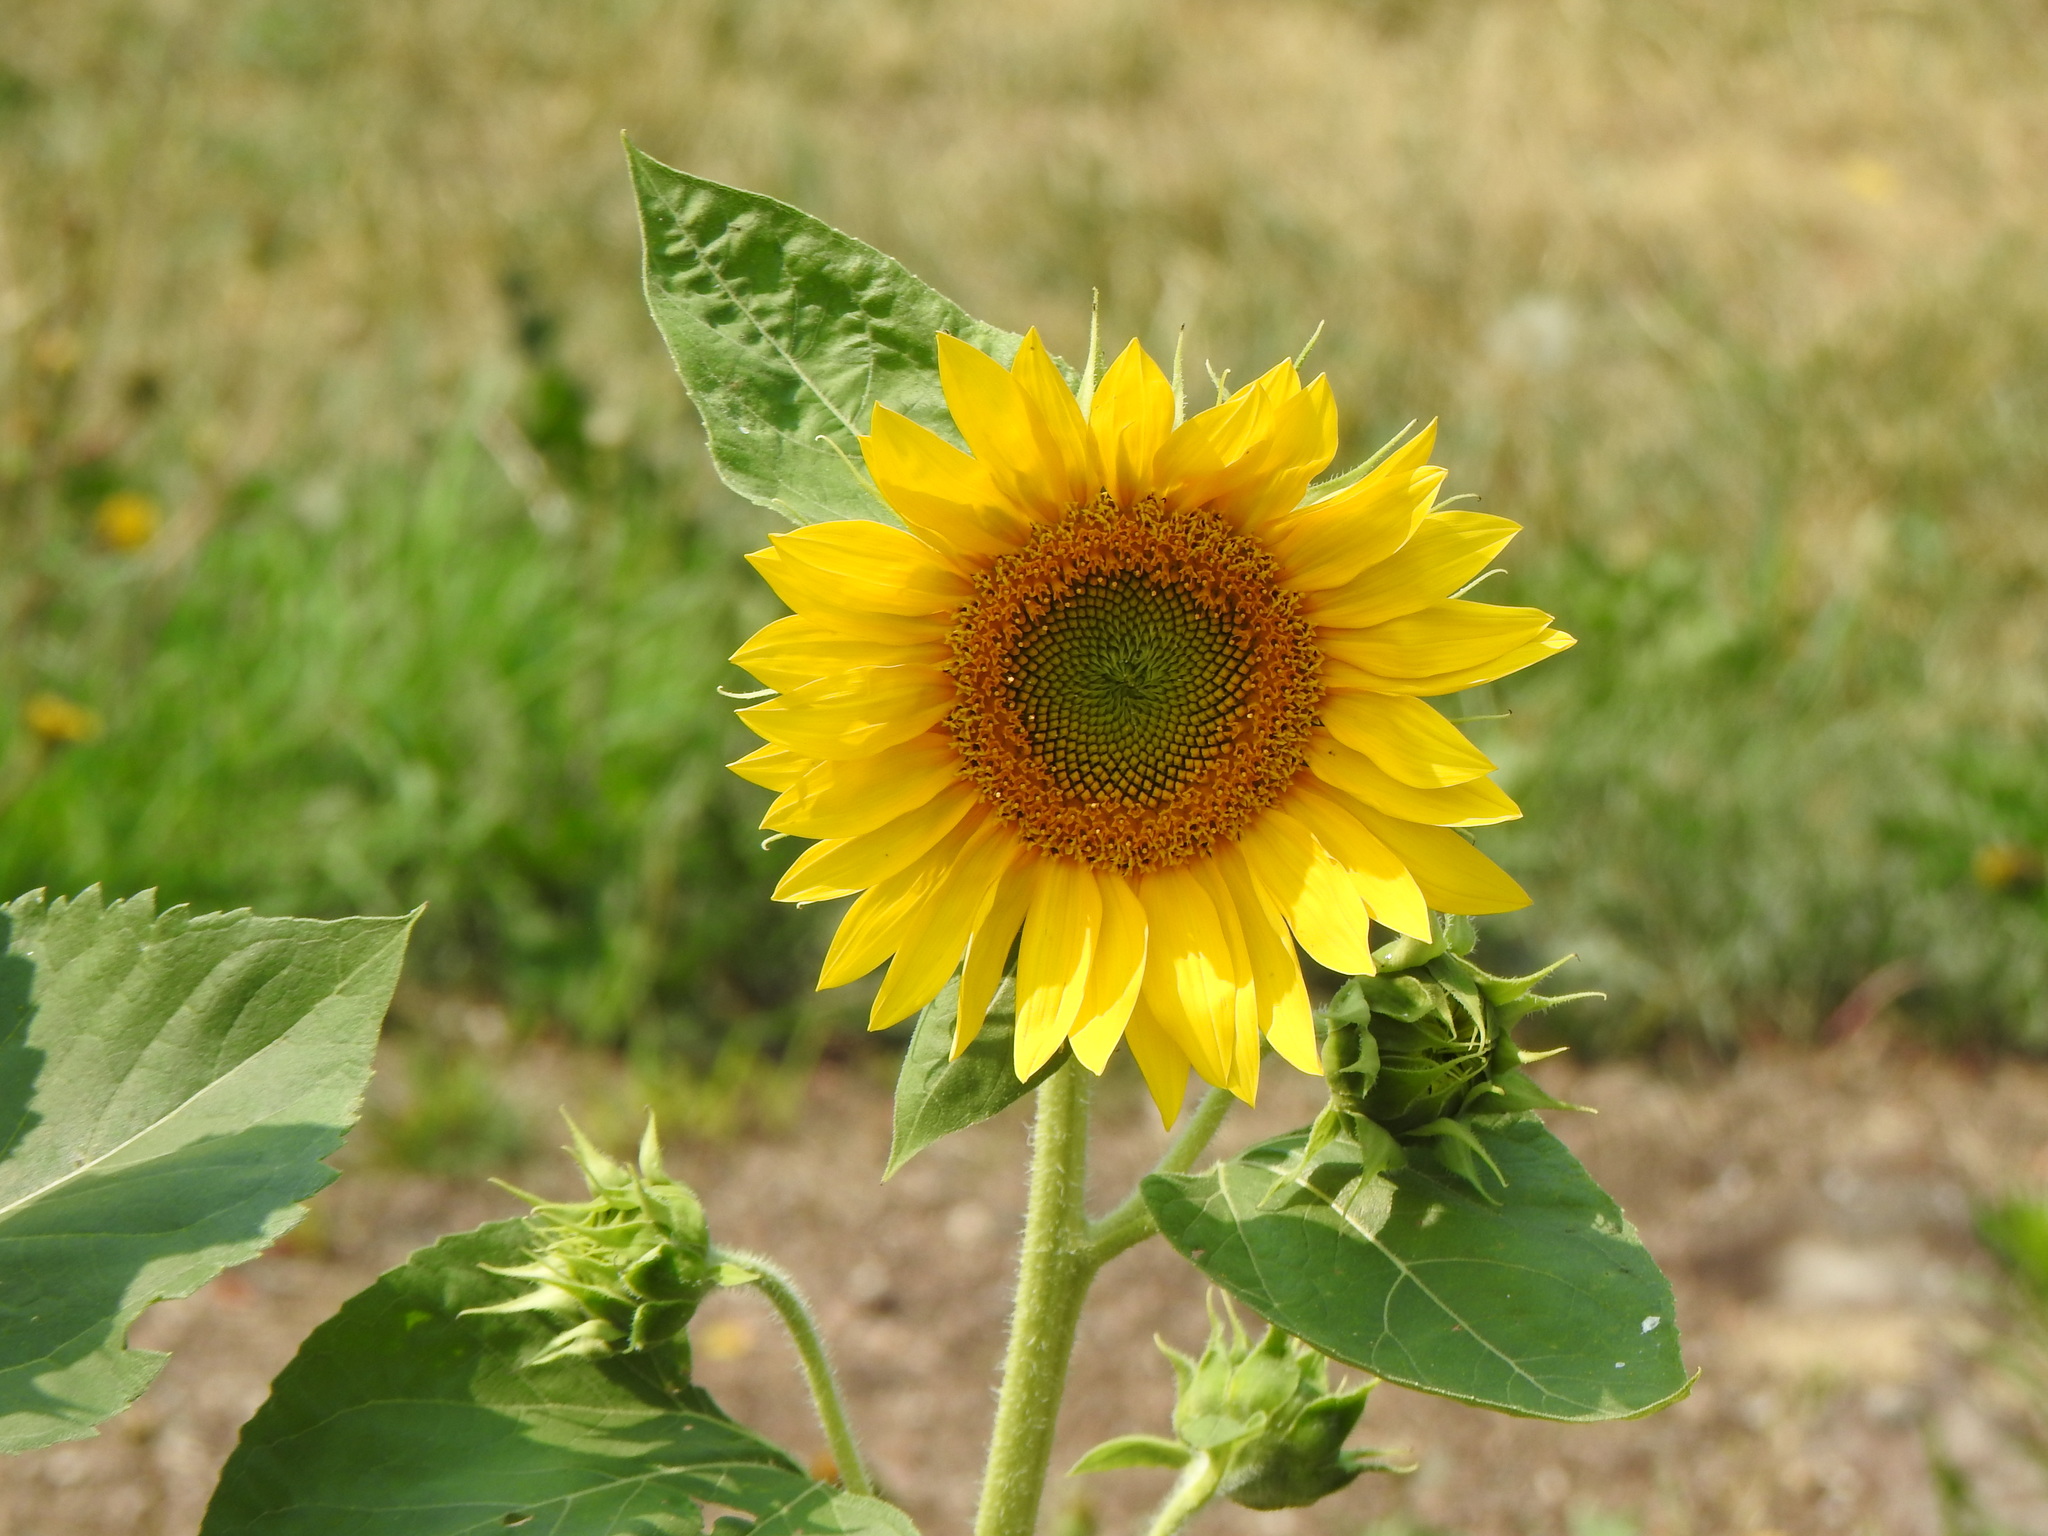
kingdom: Plantae
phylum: Tracheophyta
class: Magnoliopsida
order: Asterales
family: Asteraceae
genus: Helianthus
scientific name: Helianthus annuus
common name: Sunflower
